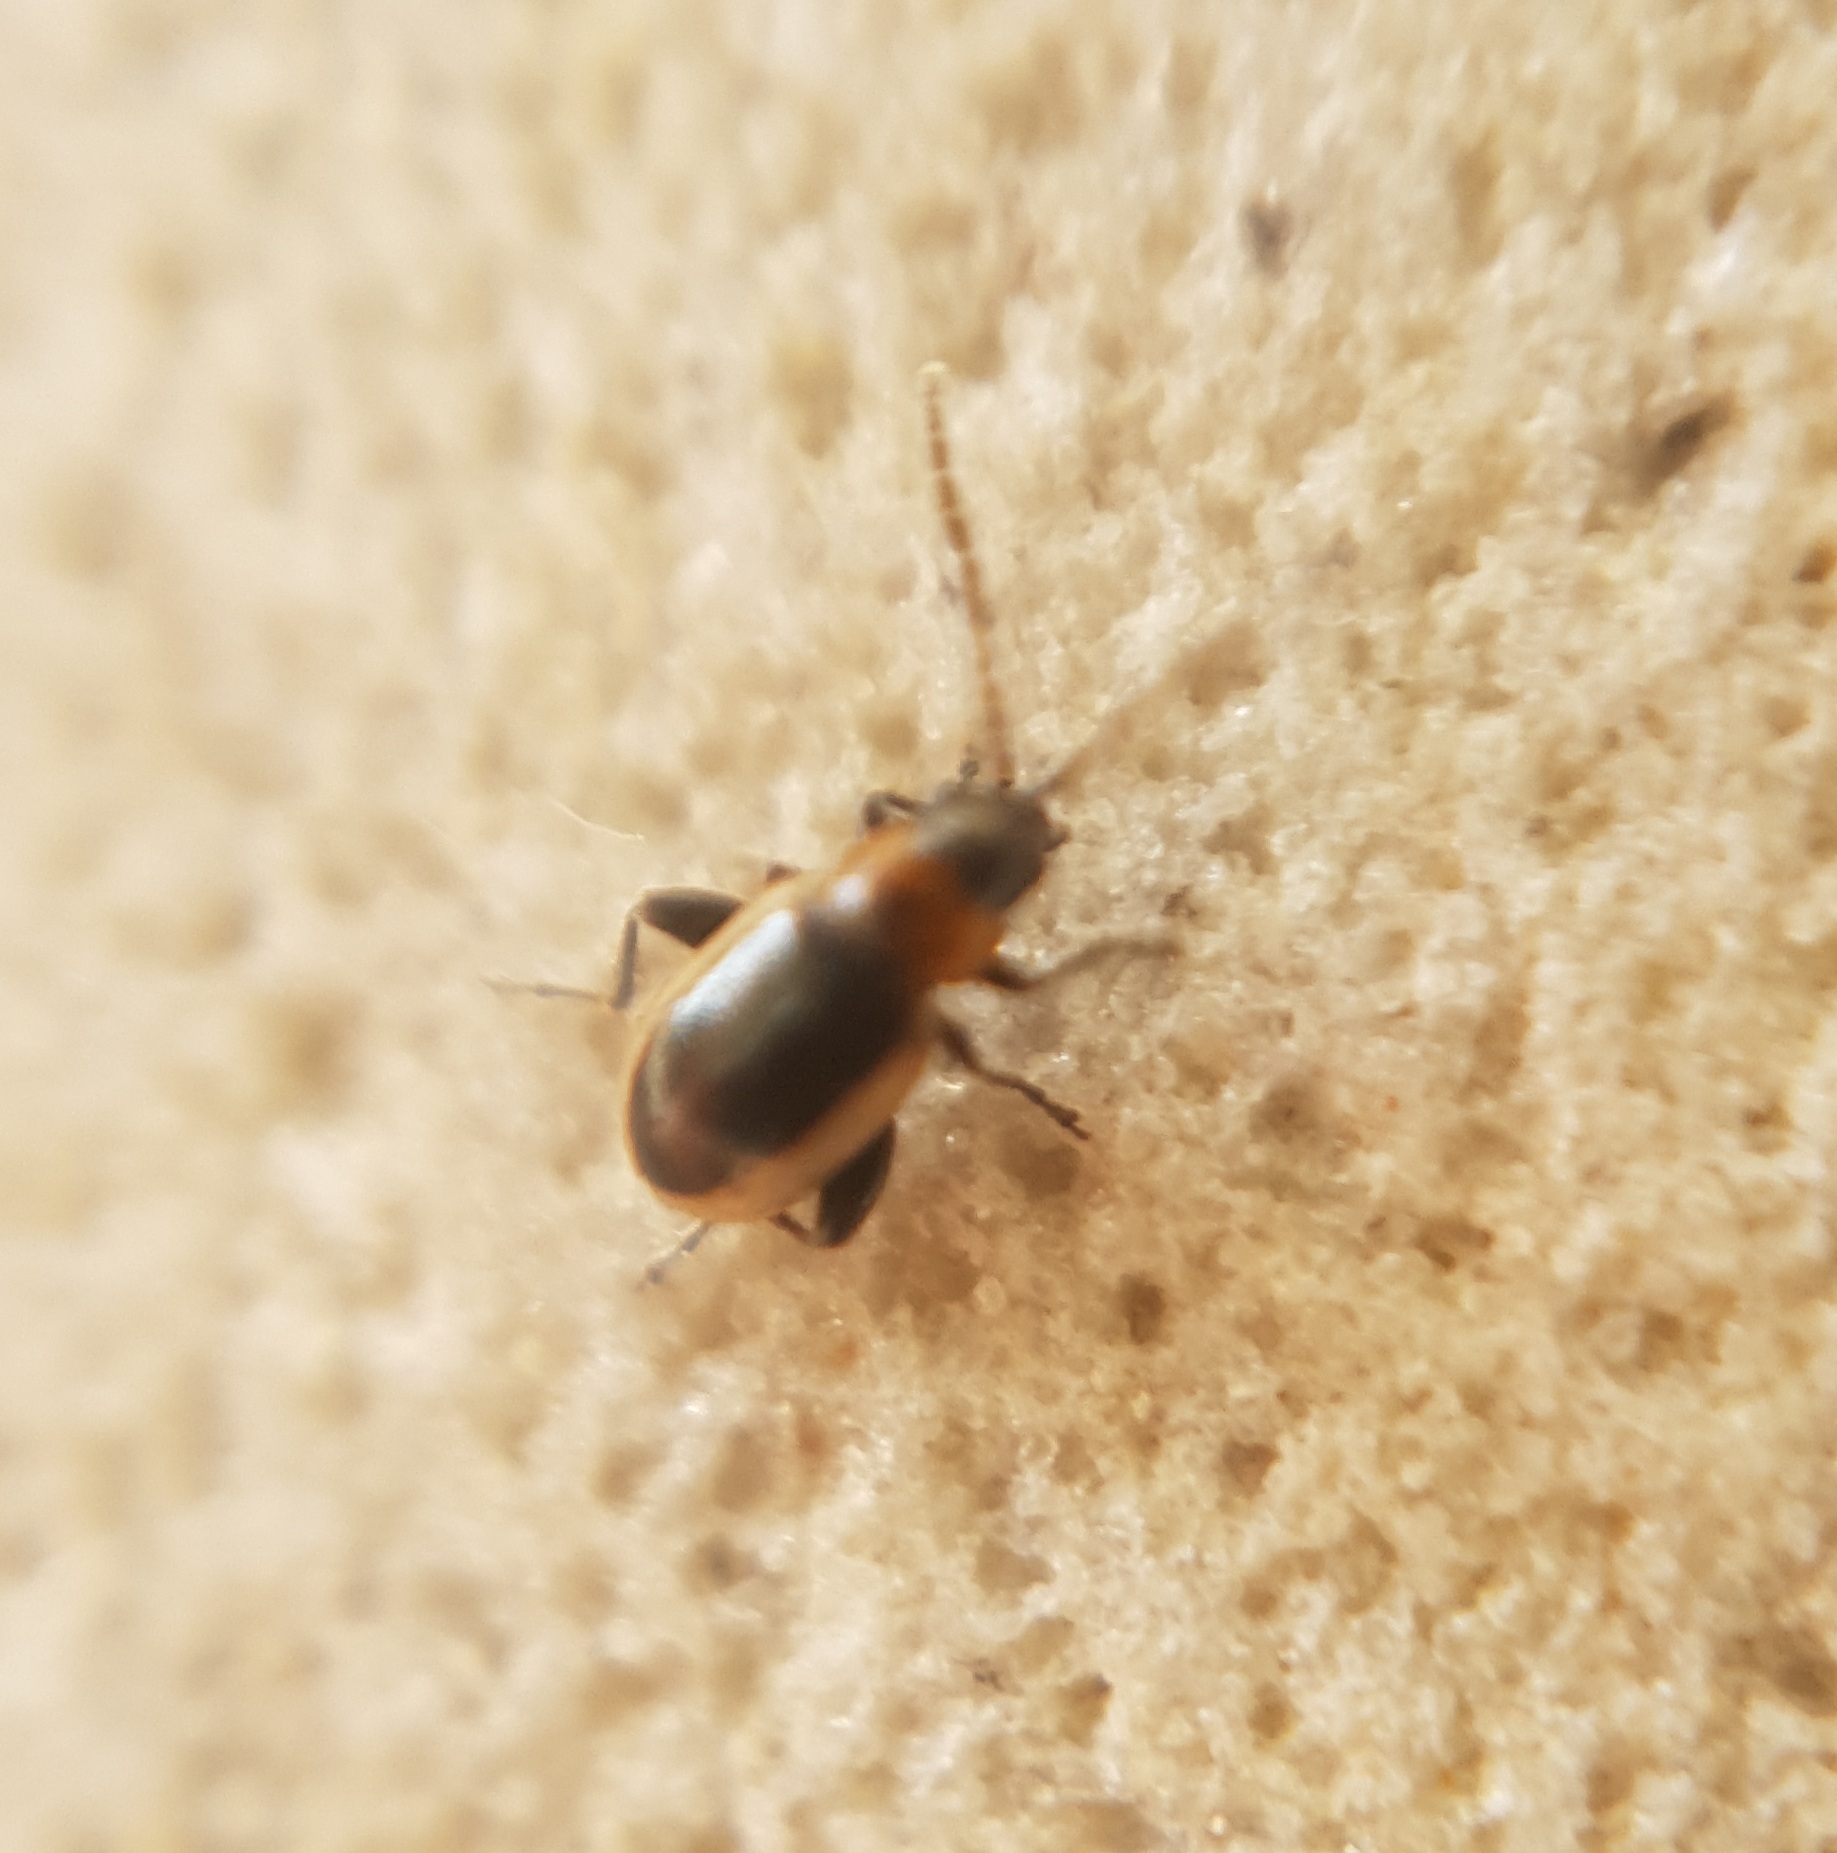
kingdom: Animalia
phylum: Arthropoda
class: Insecta
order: Coleoptera
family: Chrysomelidae
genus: Longitarsus
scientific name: Longitarsus dorsalis
